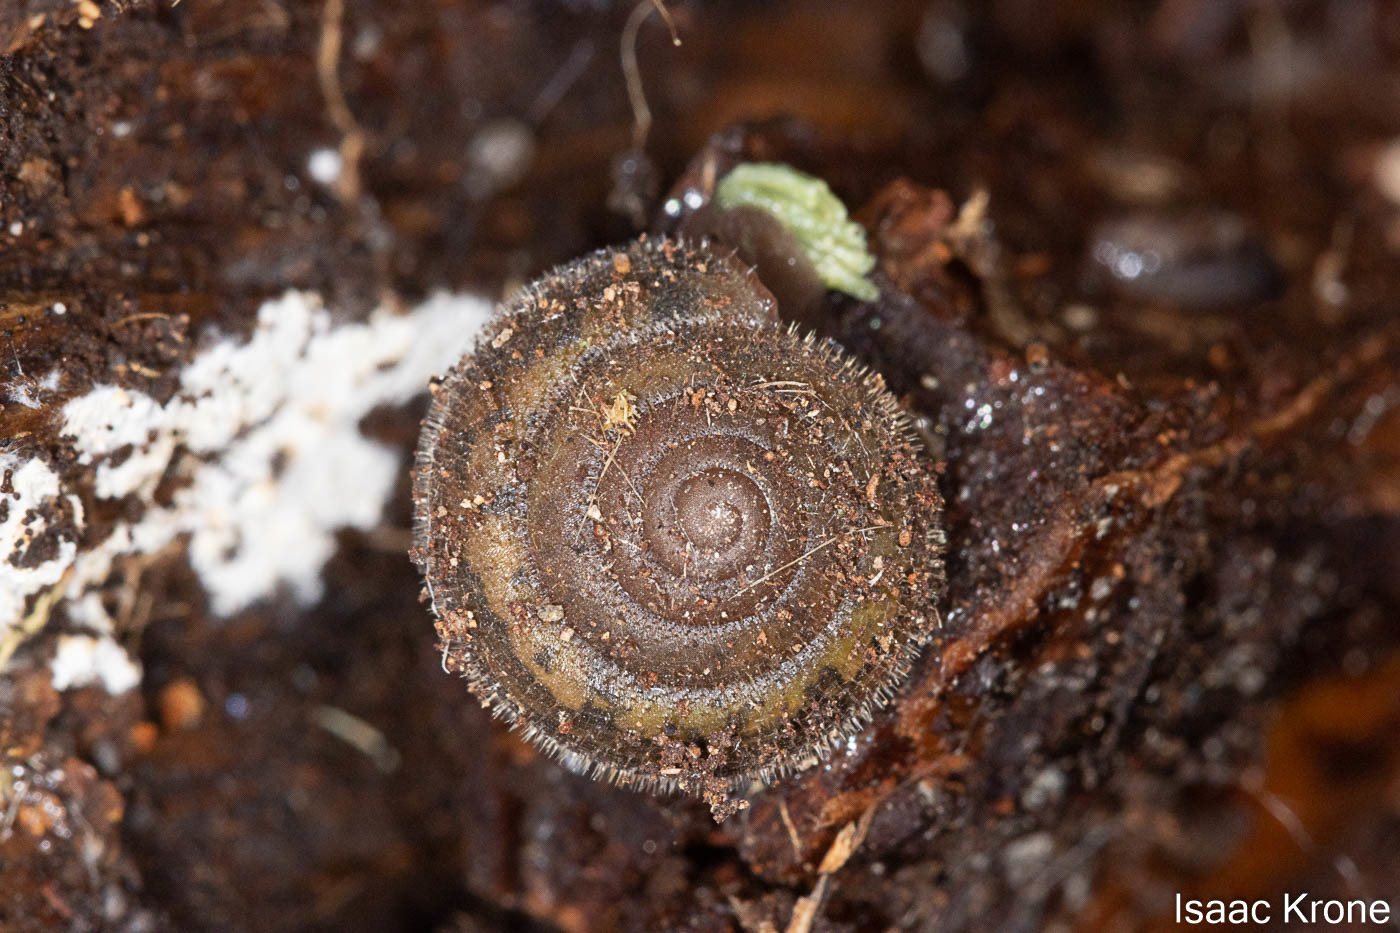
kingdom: Animalia
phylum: Mollusca
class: Gastropoda
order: Stylommatophora
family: Polygyridae
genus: Vespericola
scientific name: Vespericola marinensis
